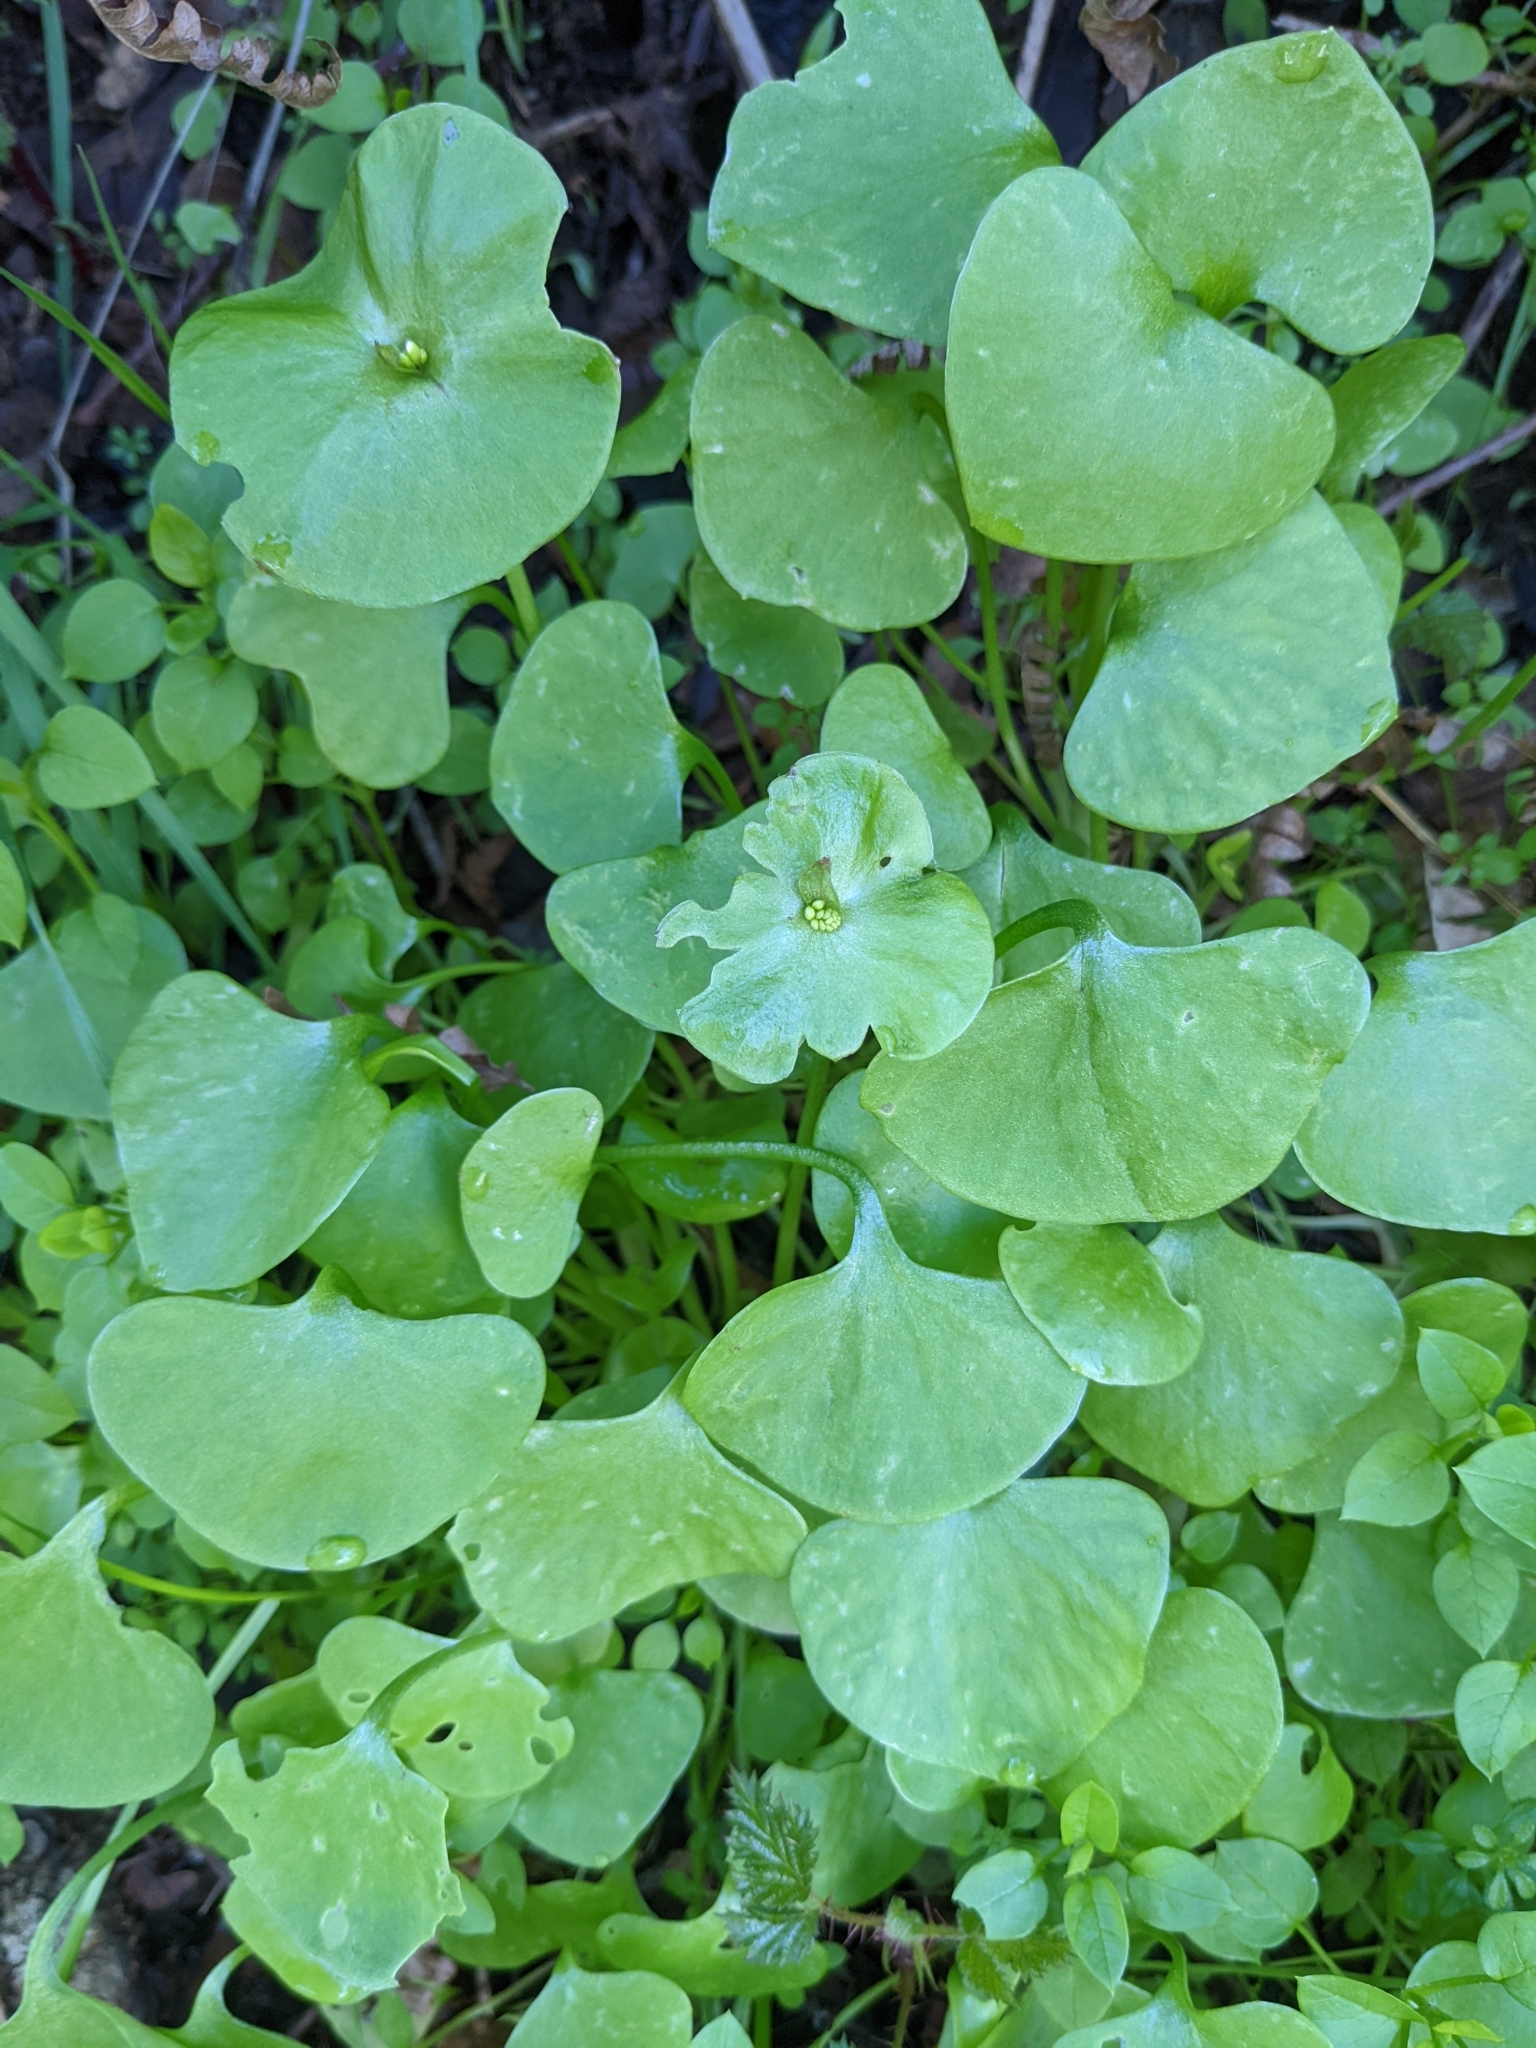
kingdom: Plantae
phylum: Tracheophyta
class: Magnoliopsida
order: Caryophyllales
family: Montiaceae
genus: Claytonia
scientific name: Claytonia perfoliata
